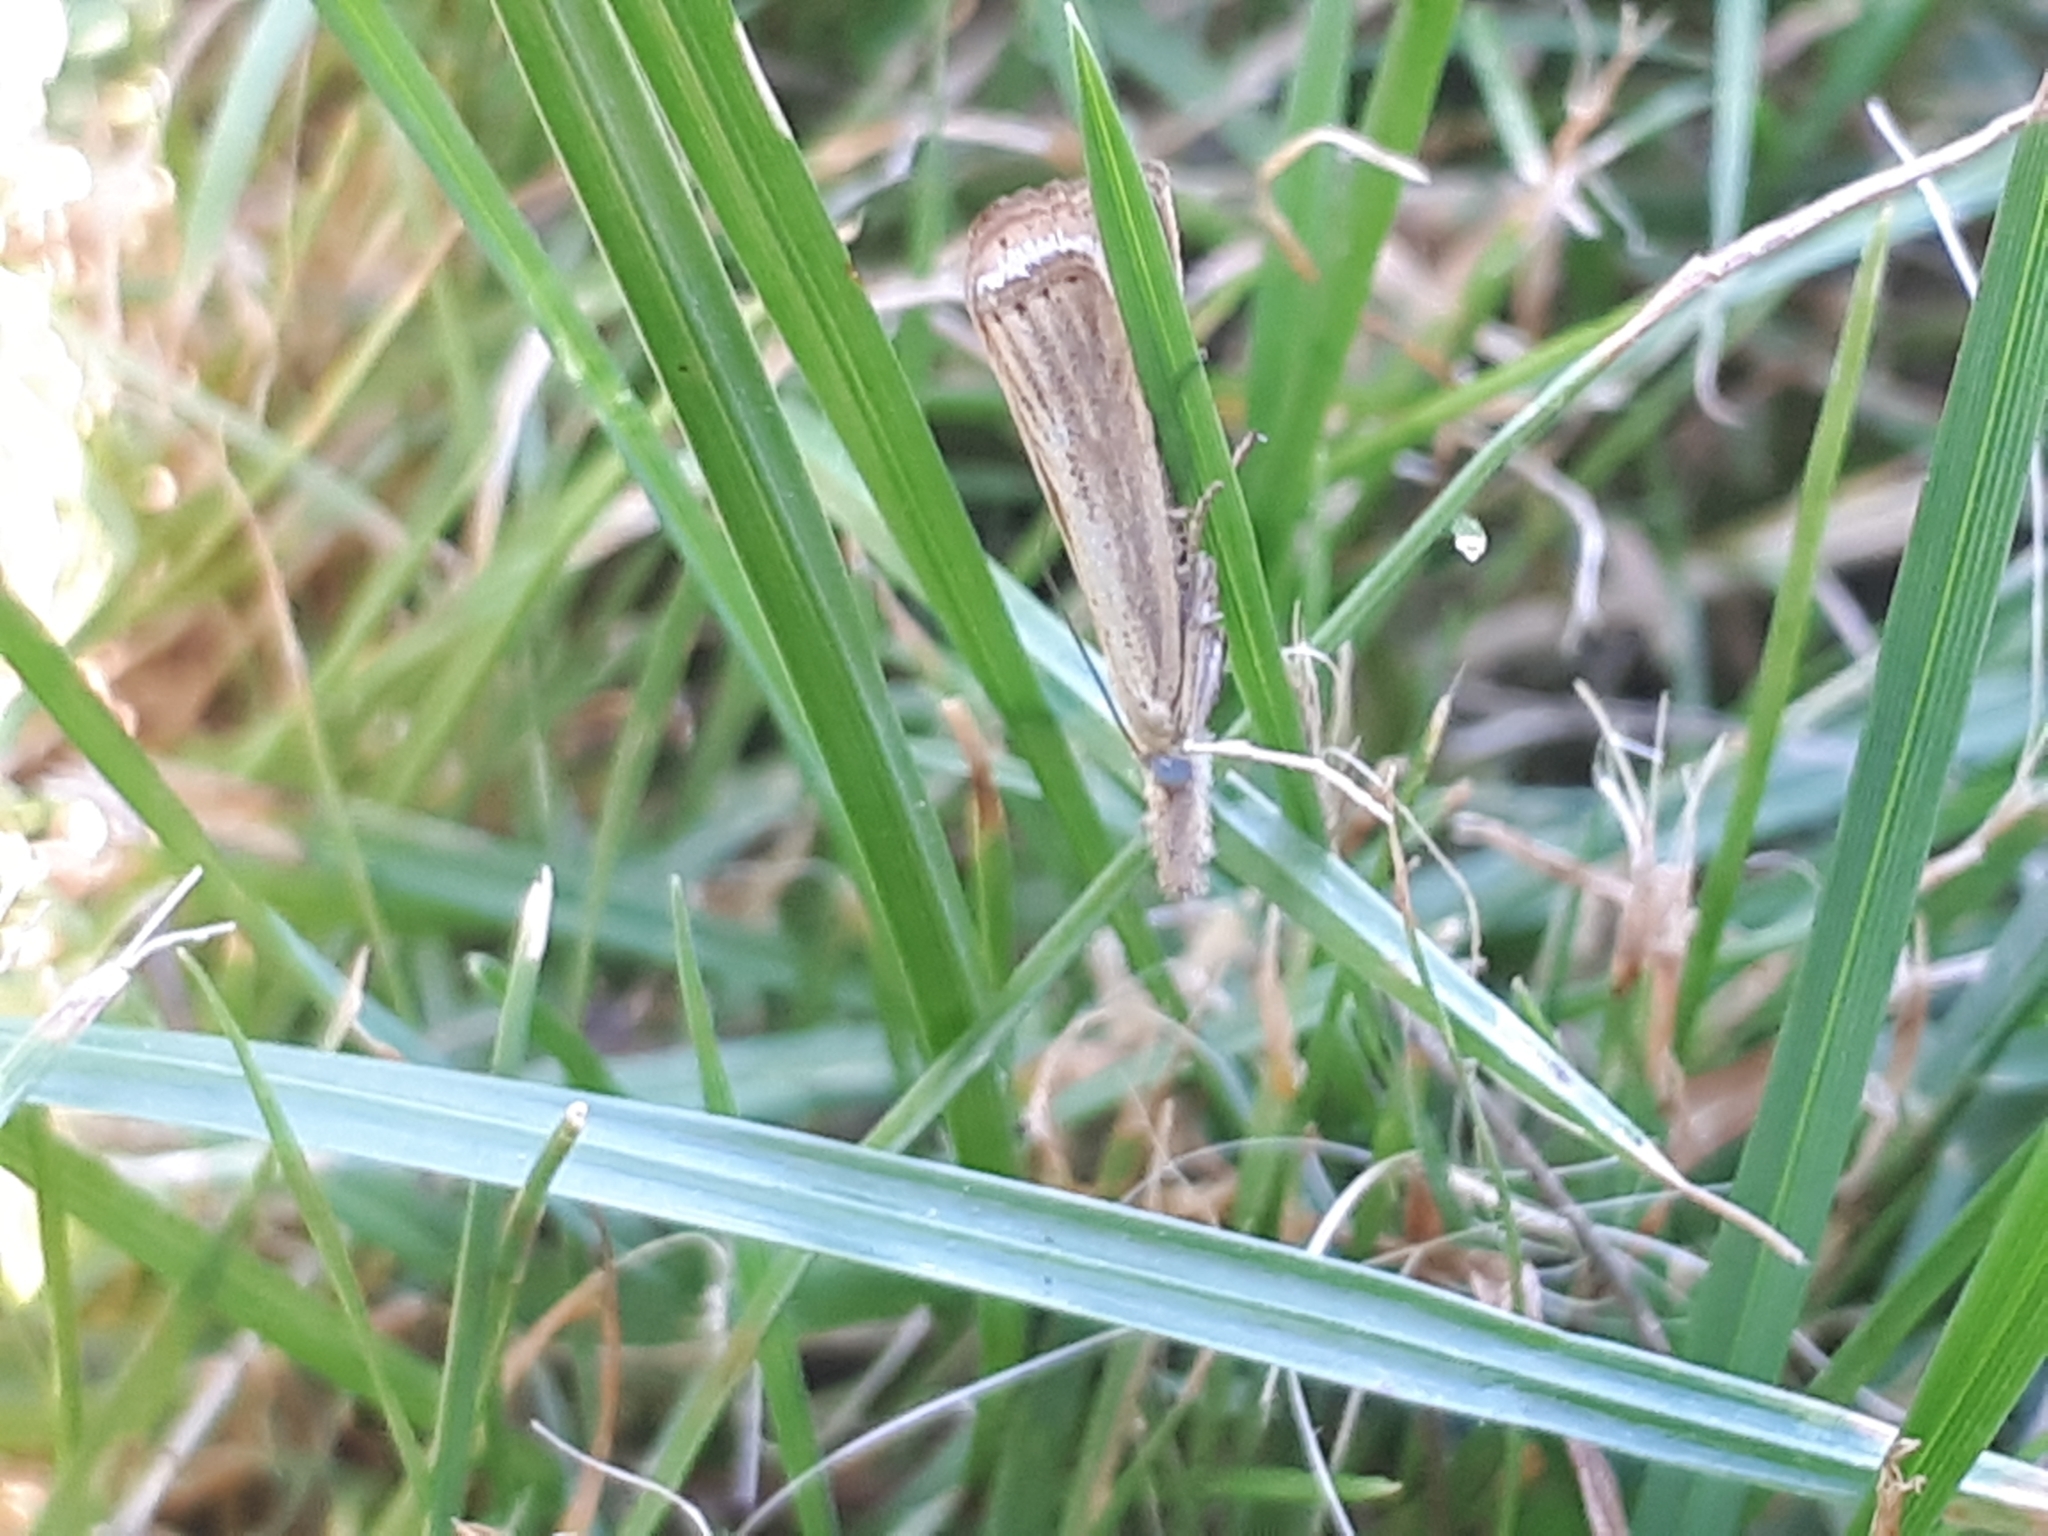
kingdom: Animalia
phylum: Arthropoda
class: Insecta
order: Lepidoptera
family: Crambidae
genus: Agriphila
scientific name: Agriphila straminella
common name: Straw grass-veneer
